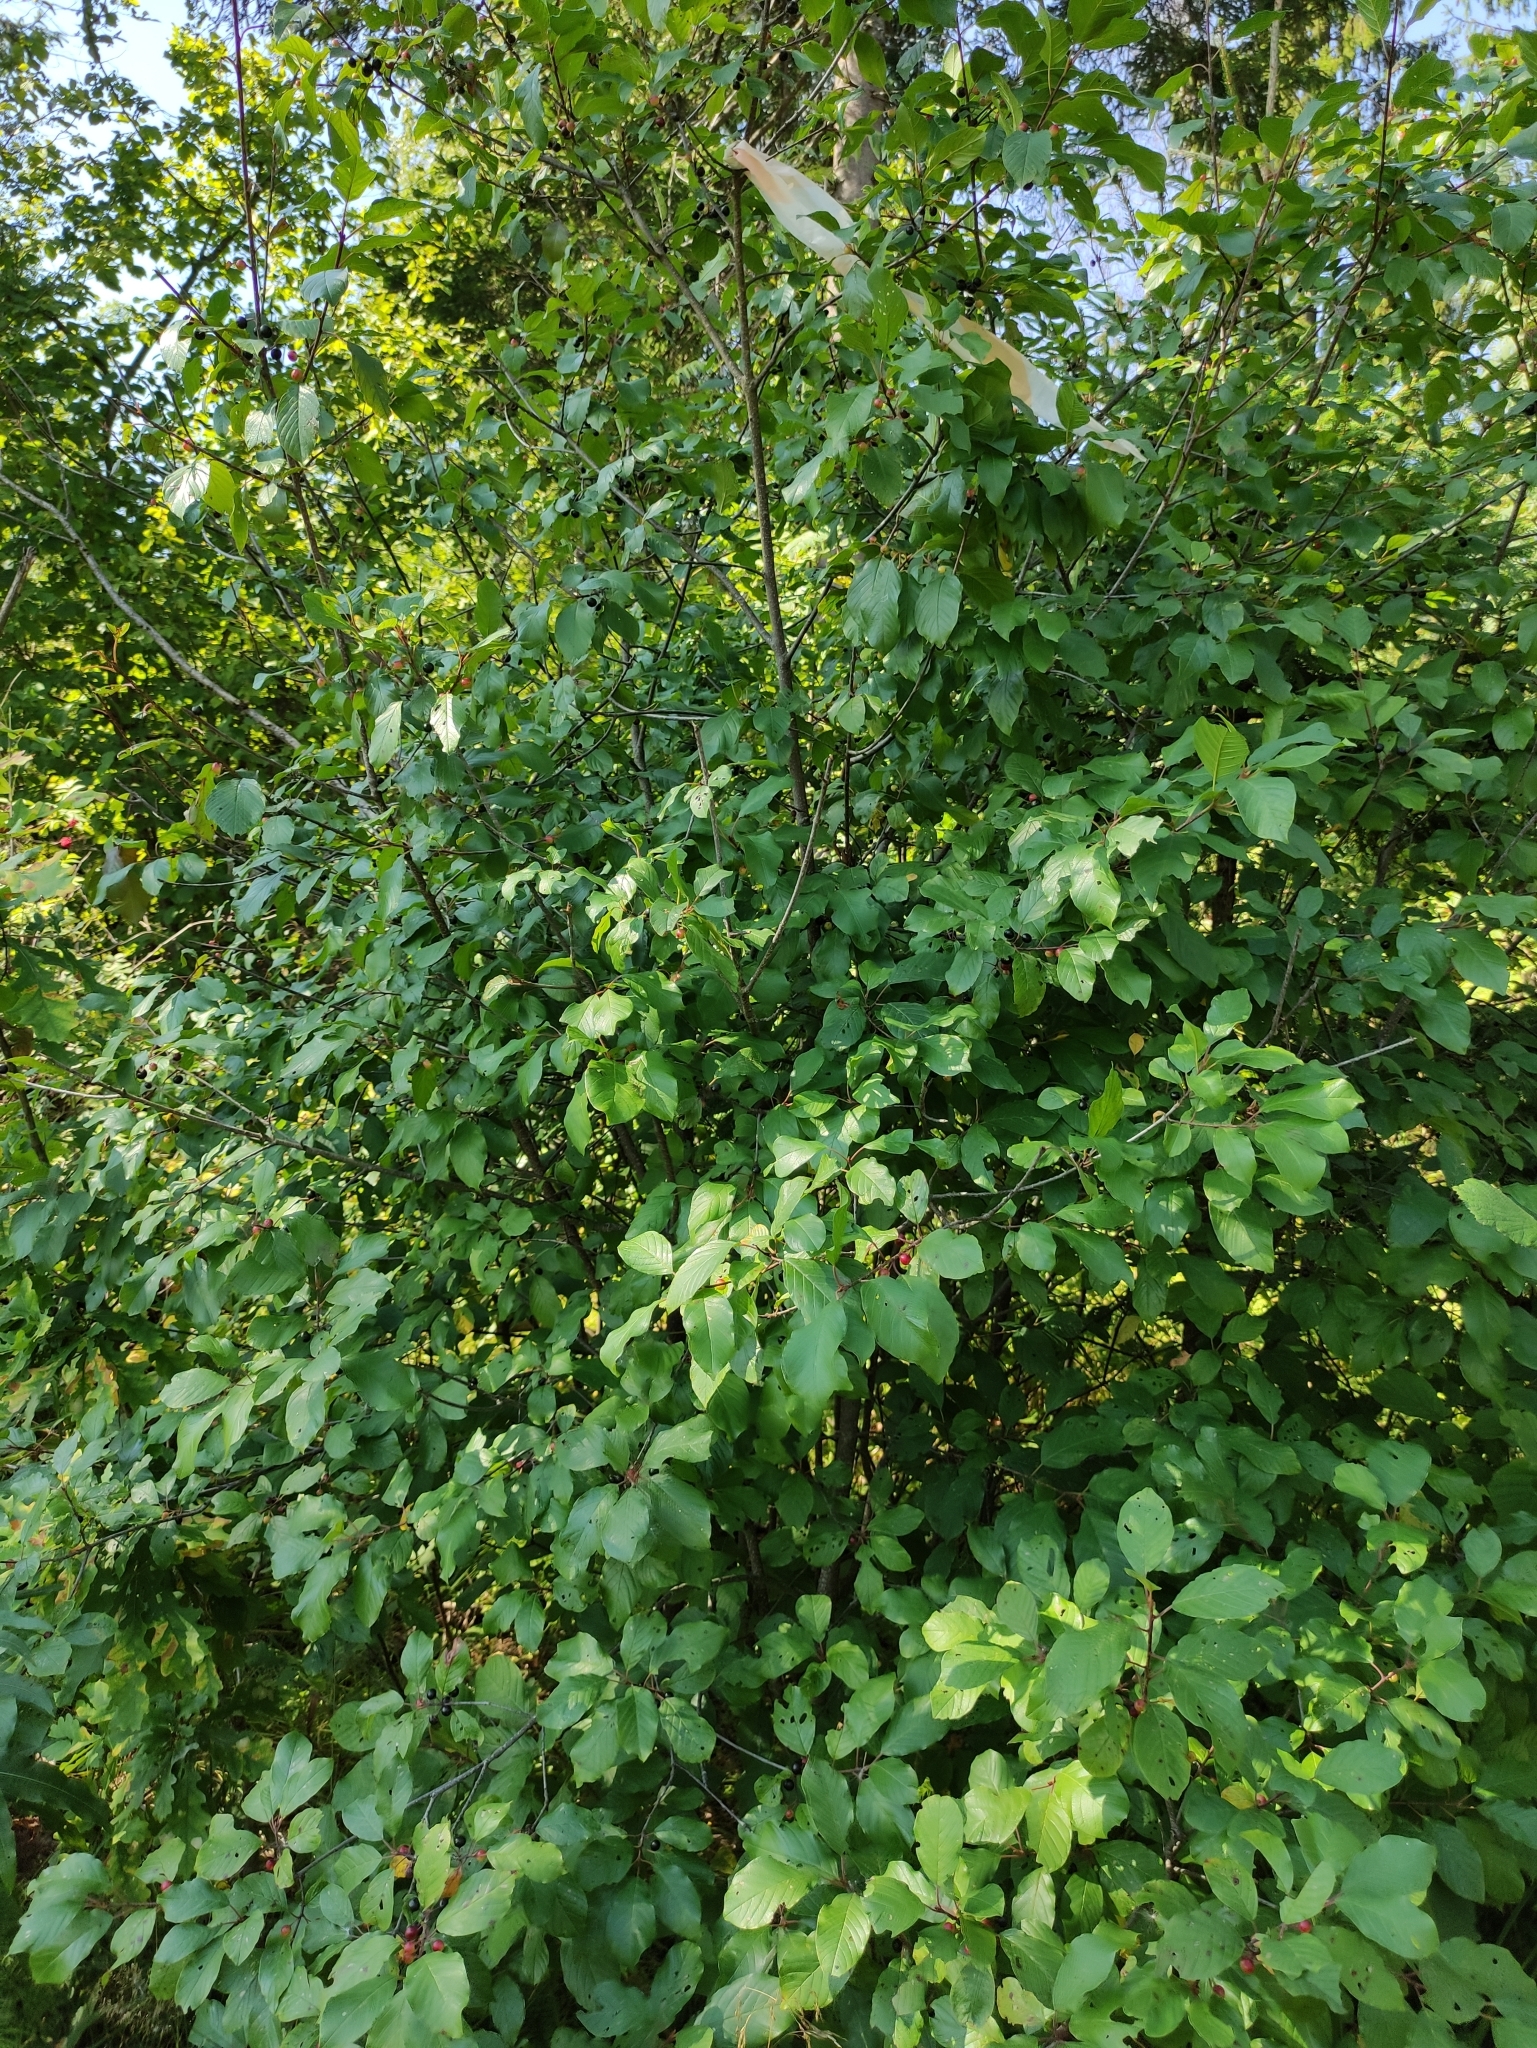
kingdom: Plantae
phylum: Tracheophyta
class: Magnoliopsida
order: Rosales
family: Rhamnaceae
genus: Frangula
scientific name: Frangula alnus
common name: Alder buckthorn
